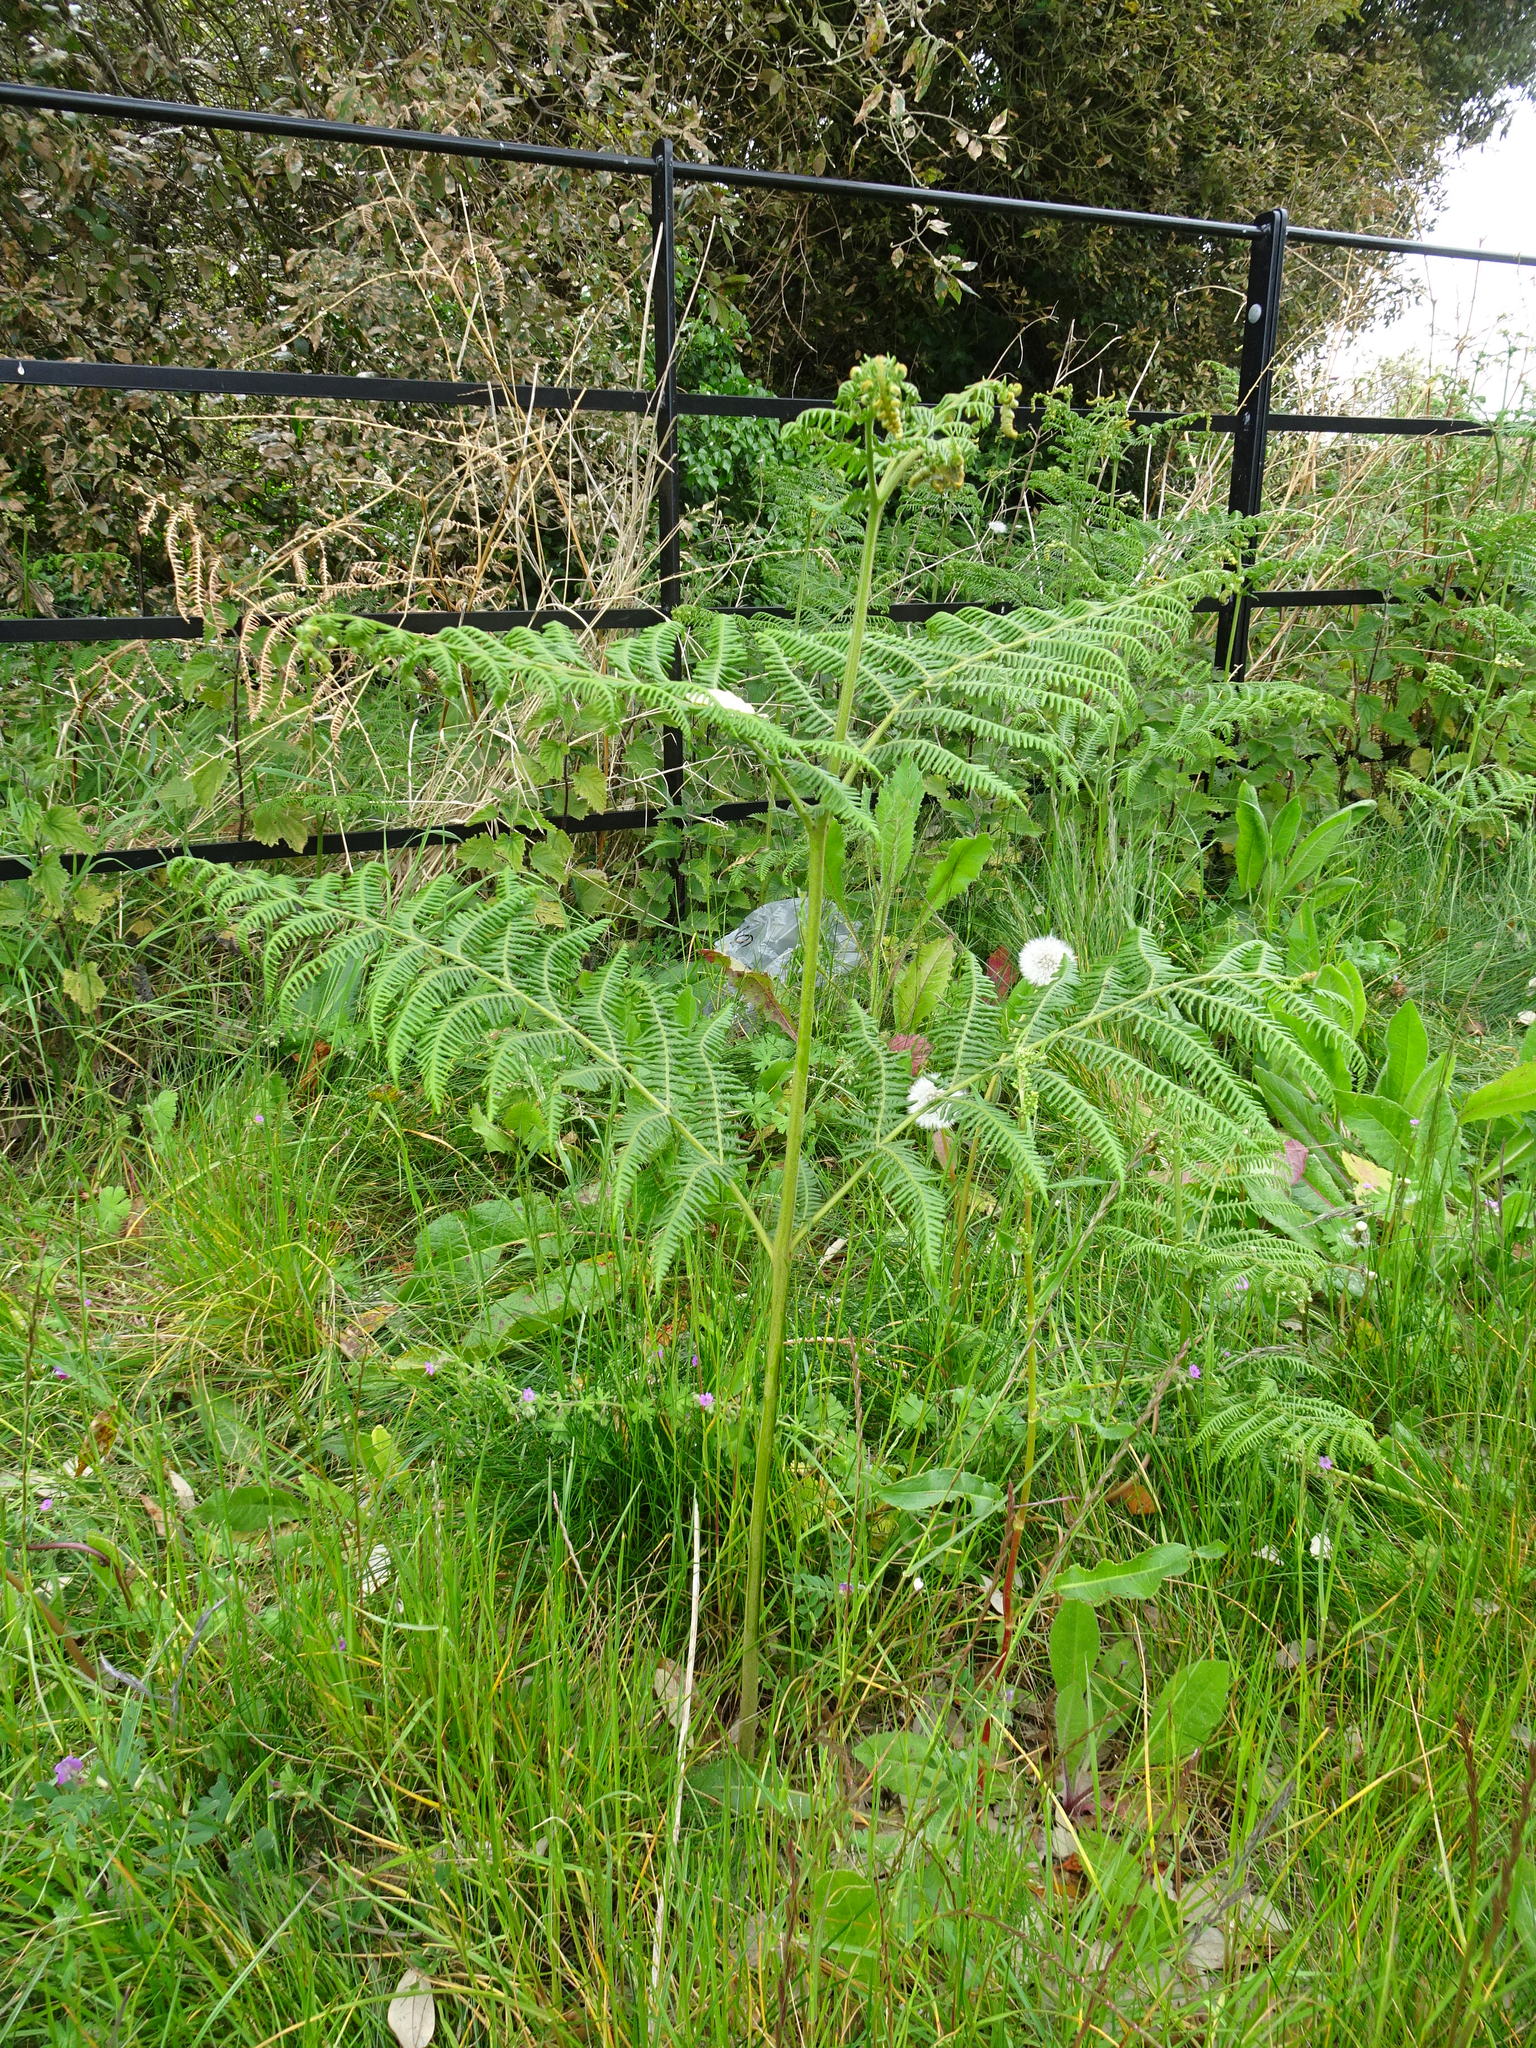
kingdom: Plantae
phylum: Tracheophyta
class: Polypodiopsida
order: Polypodiales
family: Dennstaedtiaceae
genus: Pteridium
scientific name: Pteridium aquilinum
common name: Bracken
